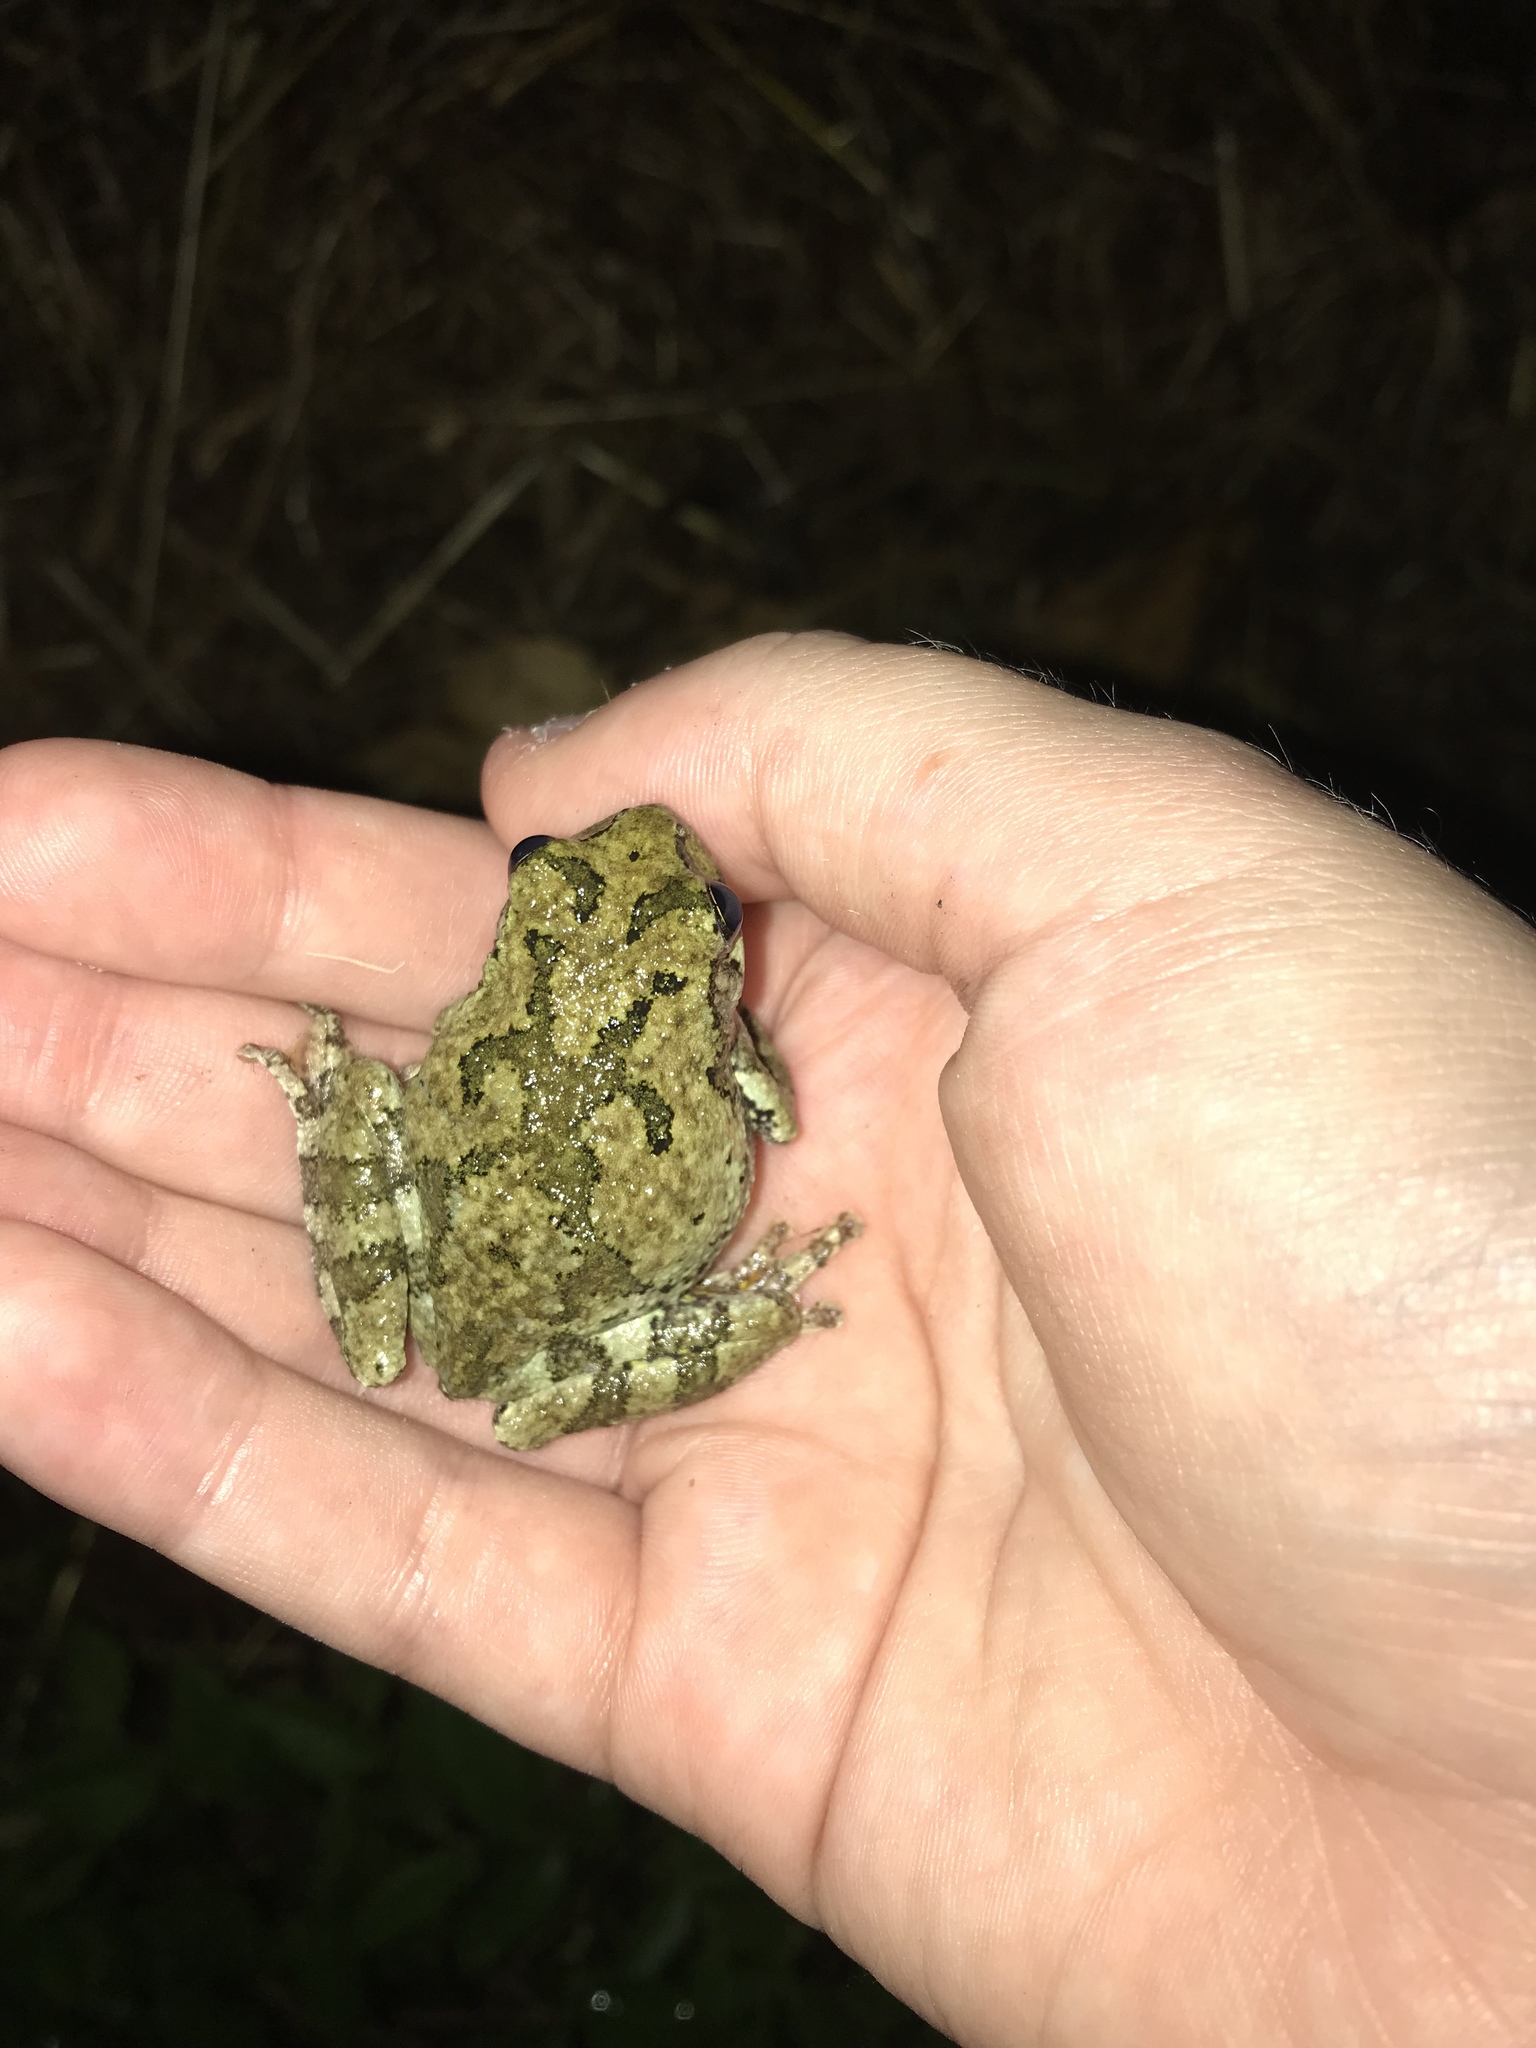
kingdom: Animalia
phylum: Chordata
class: Amphibia
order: Anura
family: Hylidae
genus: Dryophytes
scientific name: Dryophytes chrysoscelis
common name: Cope's gray treefrog
